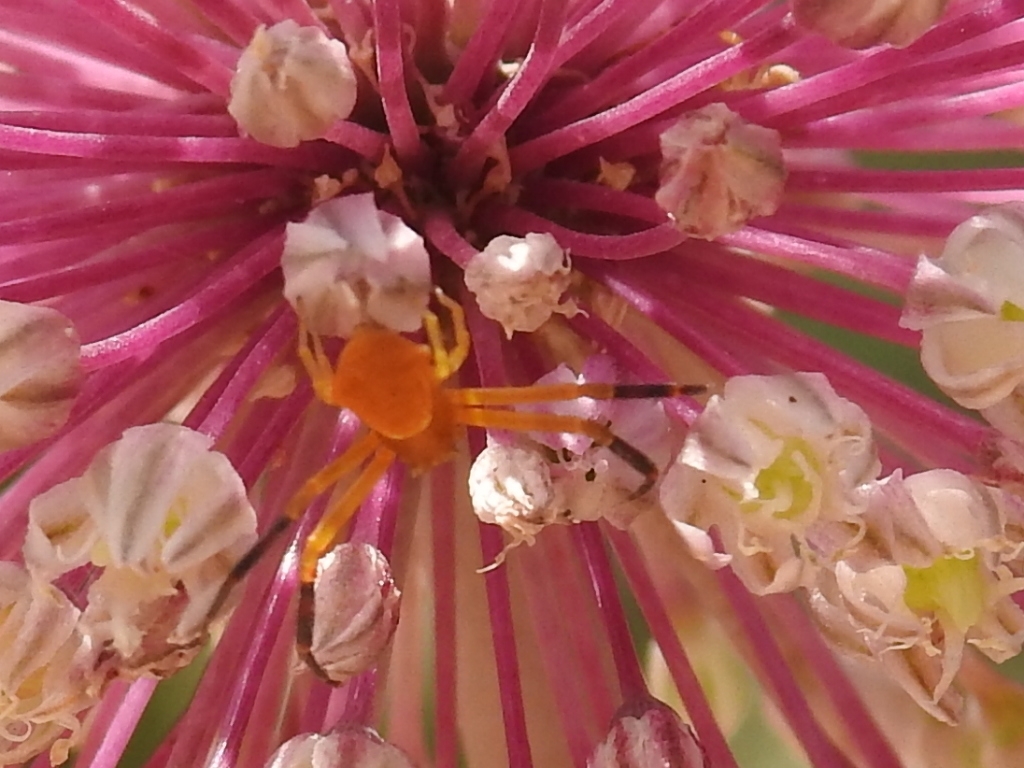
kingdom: Animalia
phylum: Arthropoda
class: Arachnida
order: Araneae
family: Thomisidae
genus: Thomisus
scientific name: Thomisus onustus
